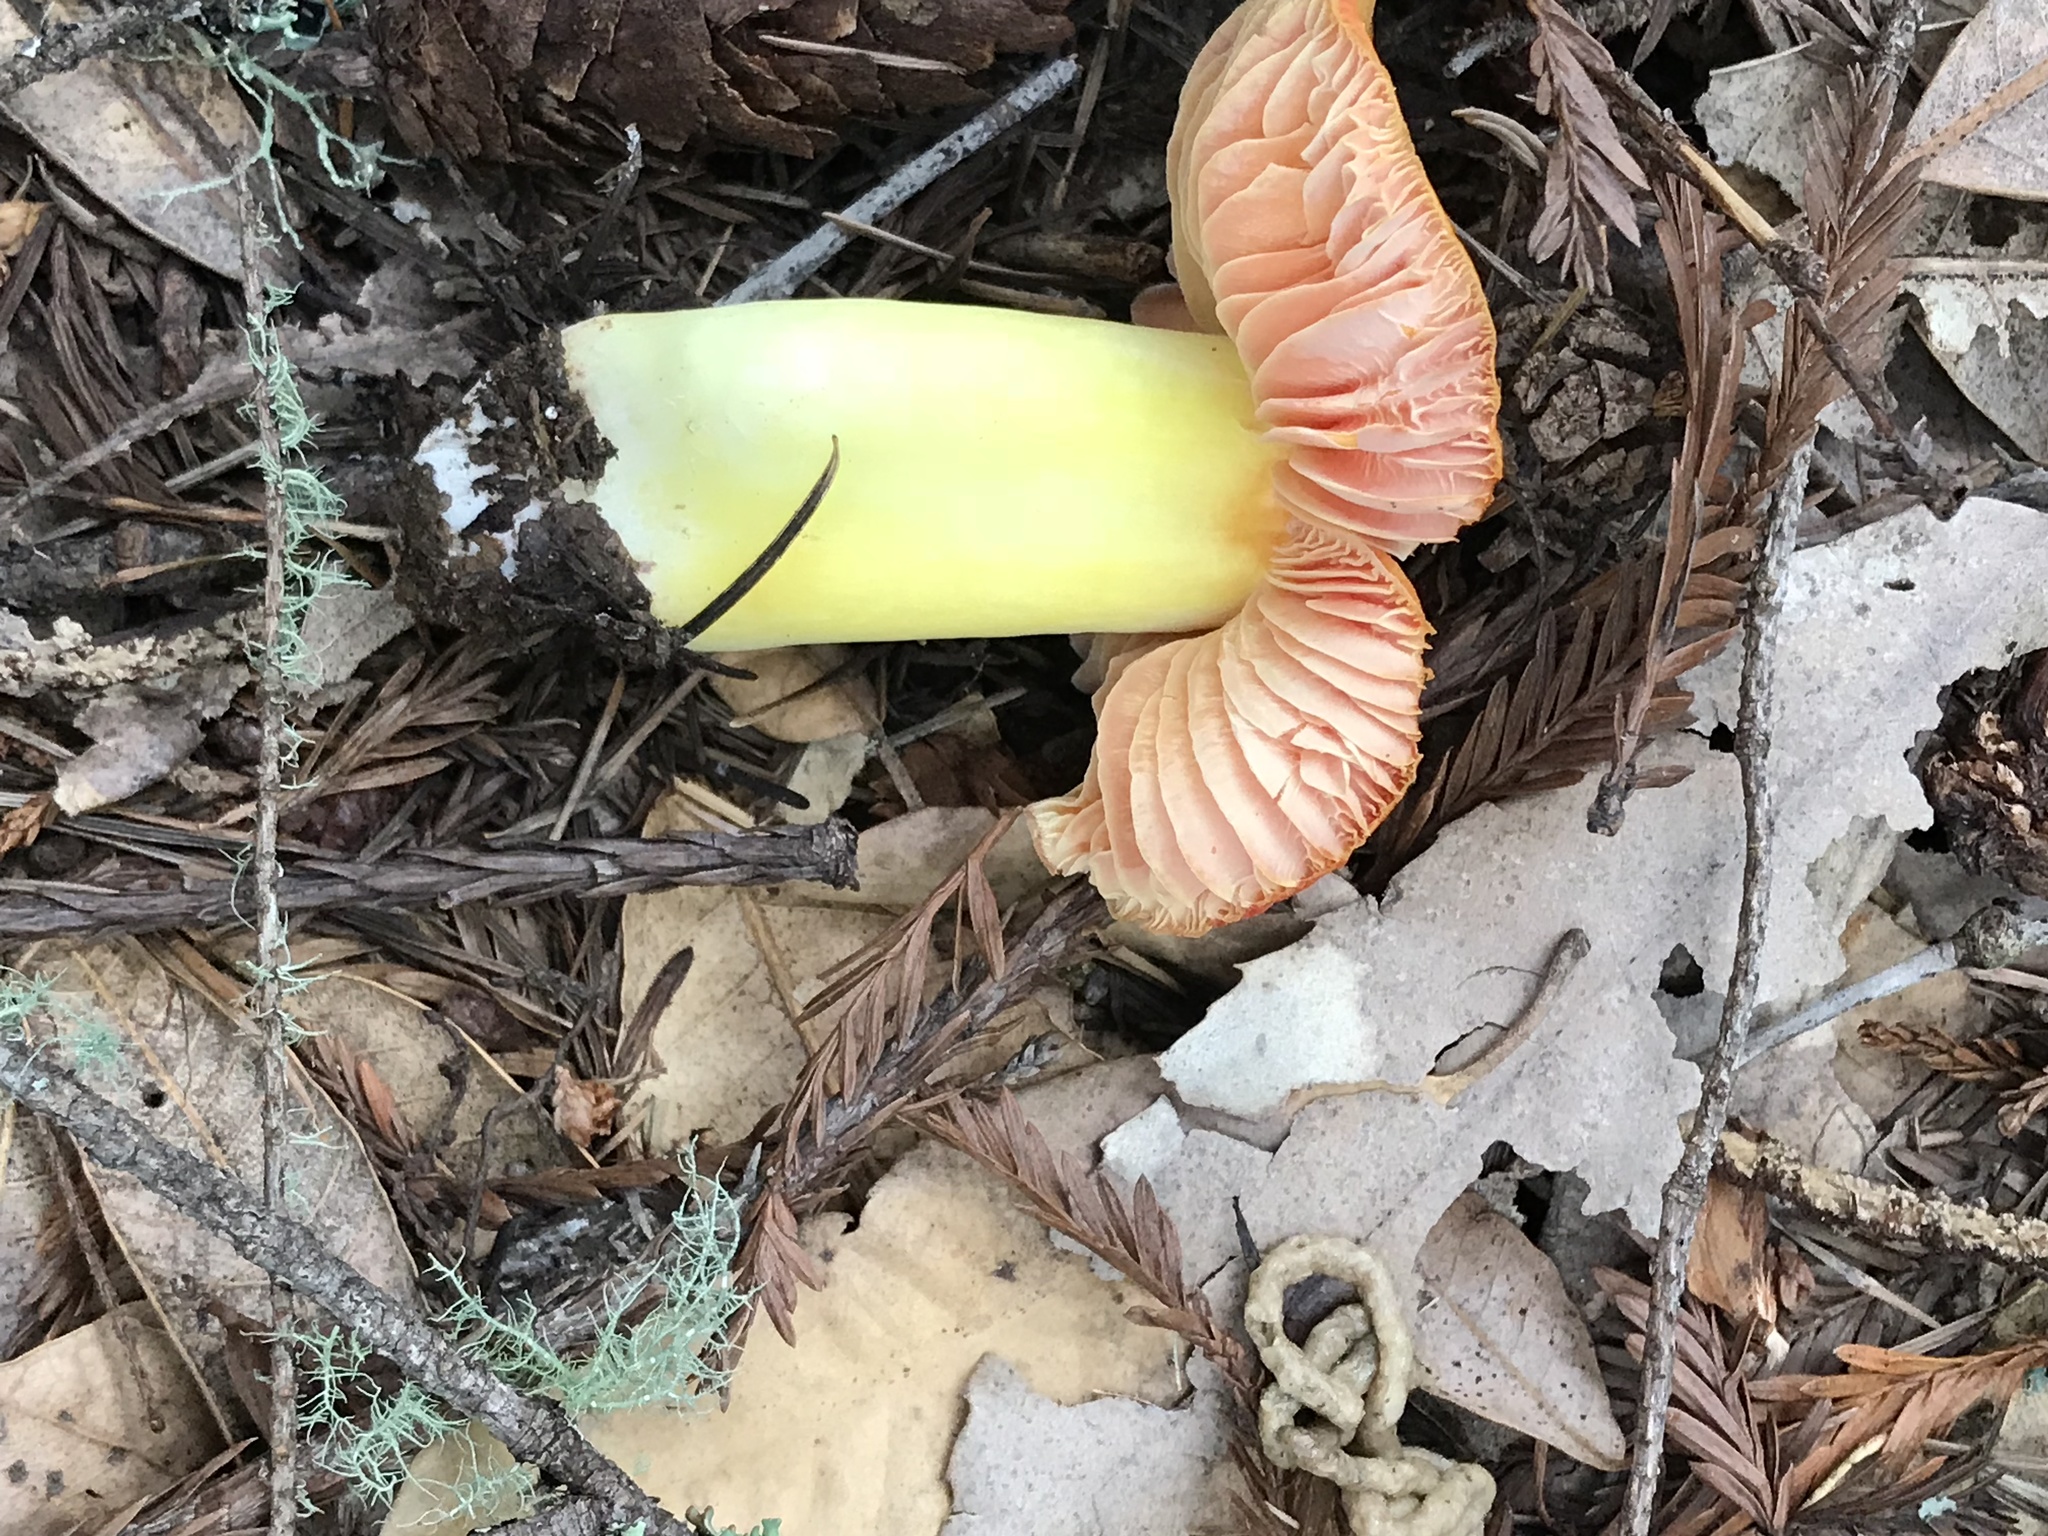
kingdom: Fungi
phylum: Basidiomycota
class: Agaricomycetes
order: Agaricales
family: Hygrophoraceae
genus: Hygrocybe
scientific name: Hygrocybe laetissima
